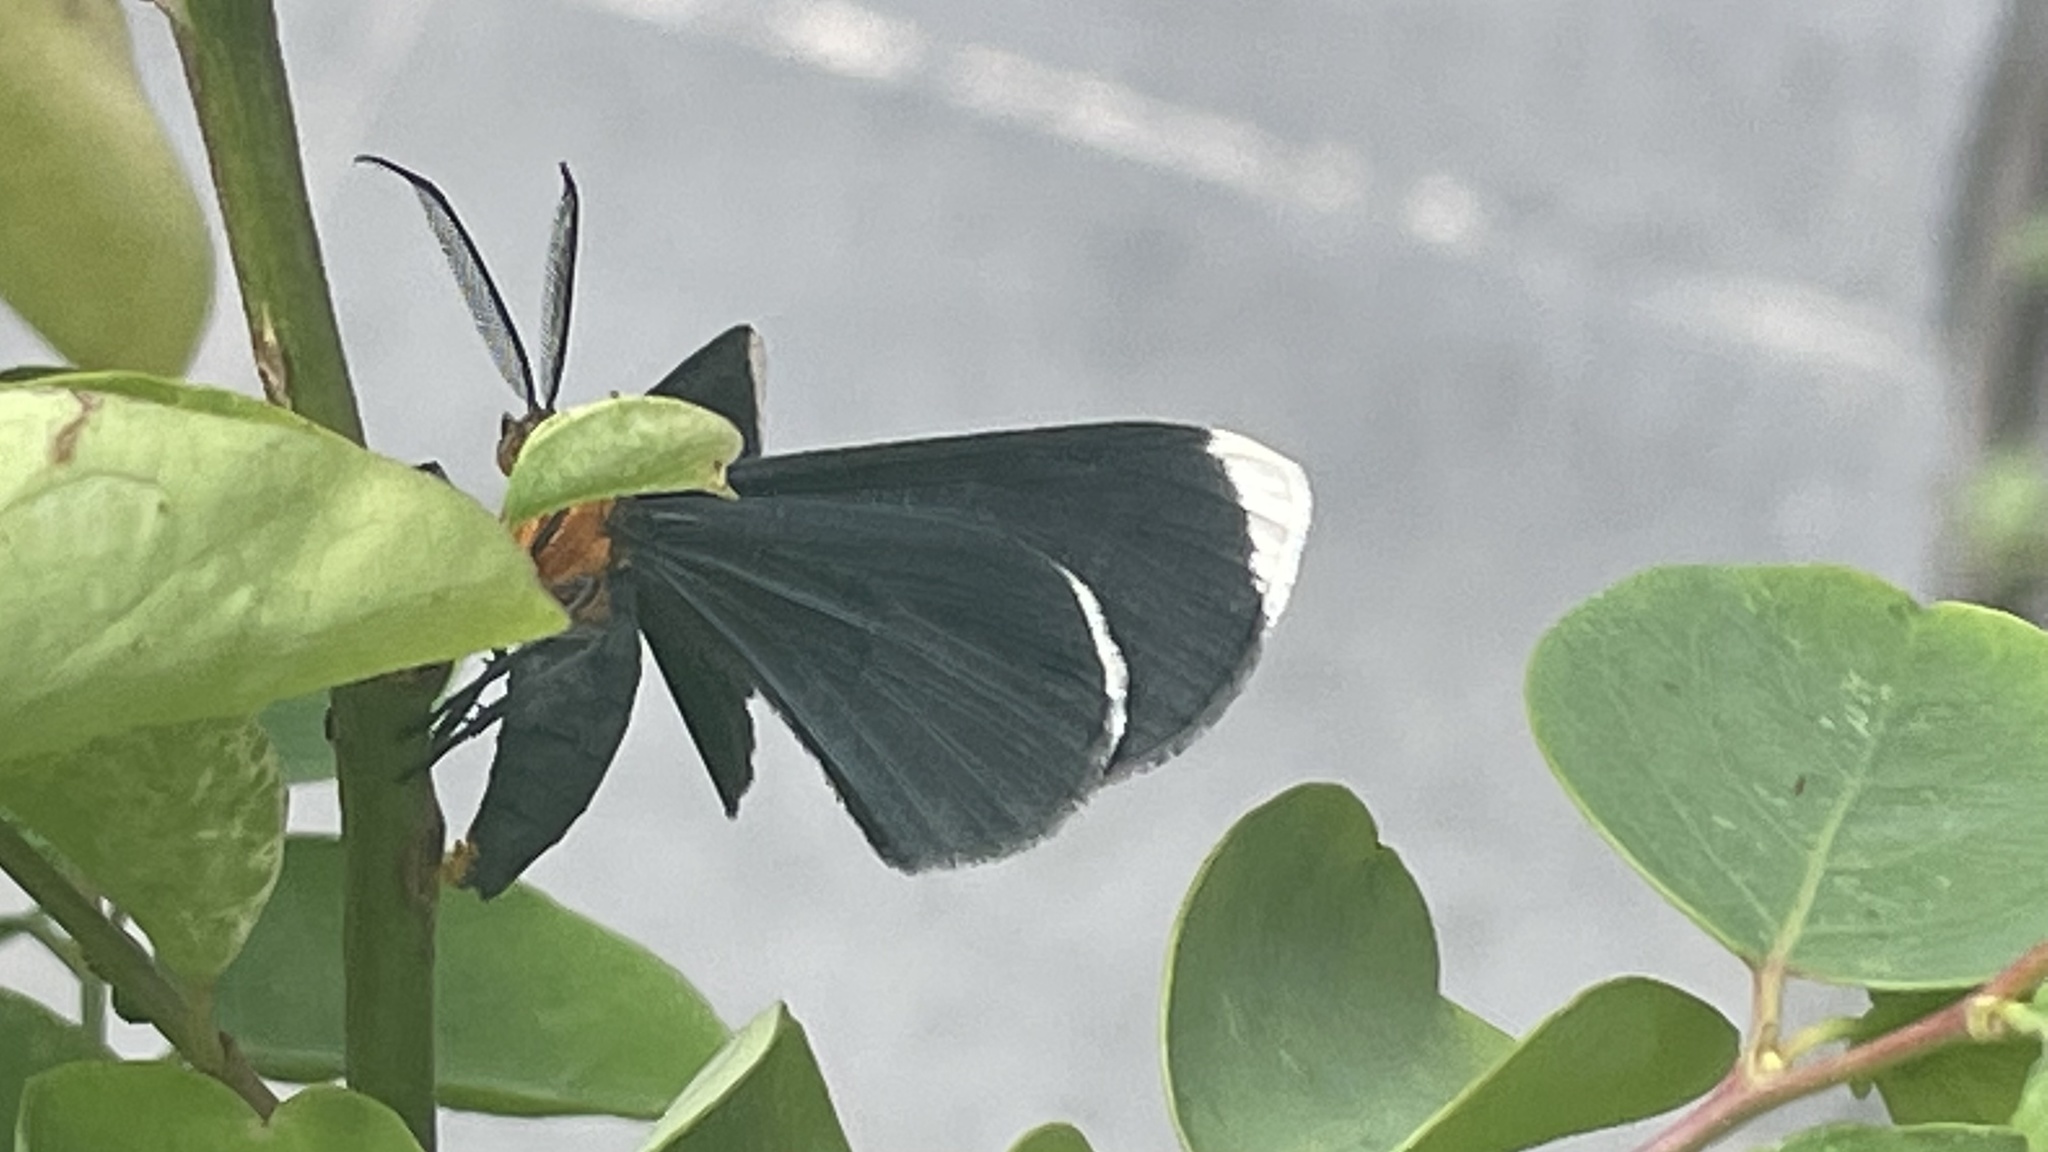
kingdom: Animalia
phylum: Arthropoda
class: Insecta
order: Lepidoptera
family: Geometridae
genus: Melanchroia
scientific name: Melanchroia chephise
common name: White-tipped black
